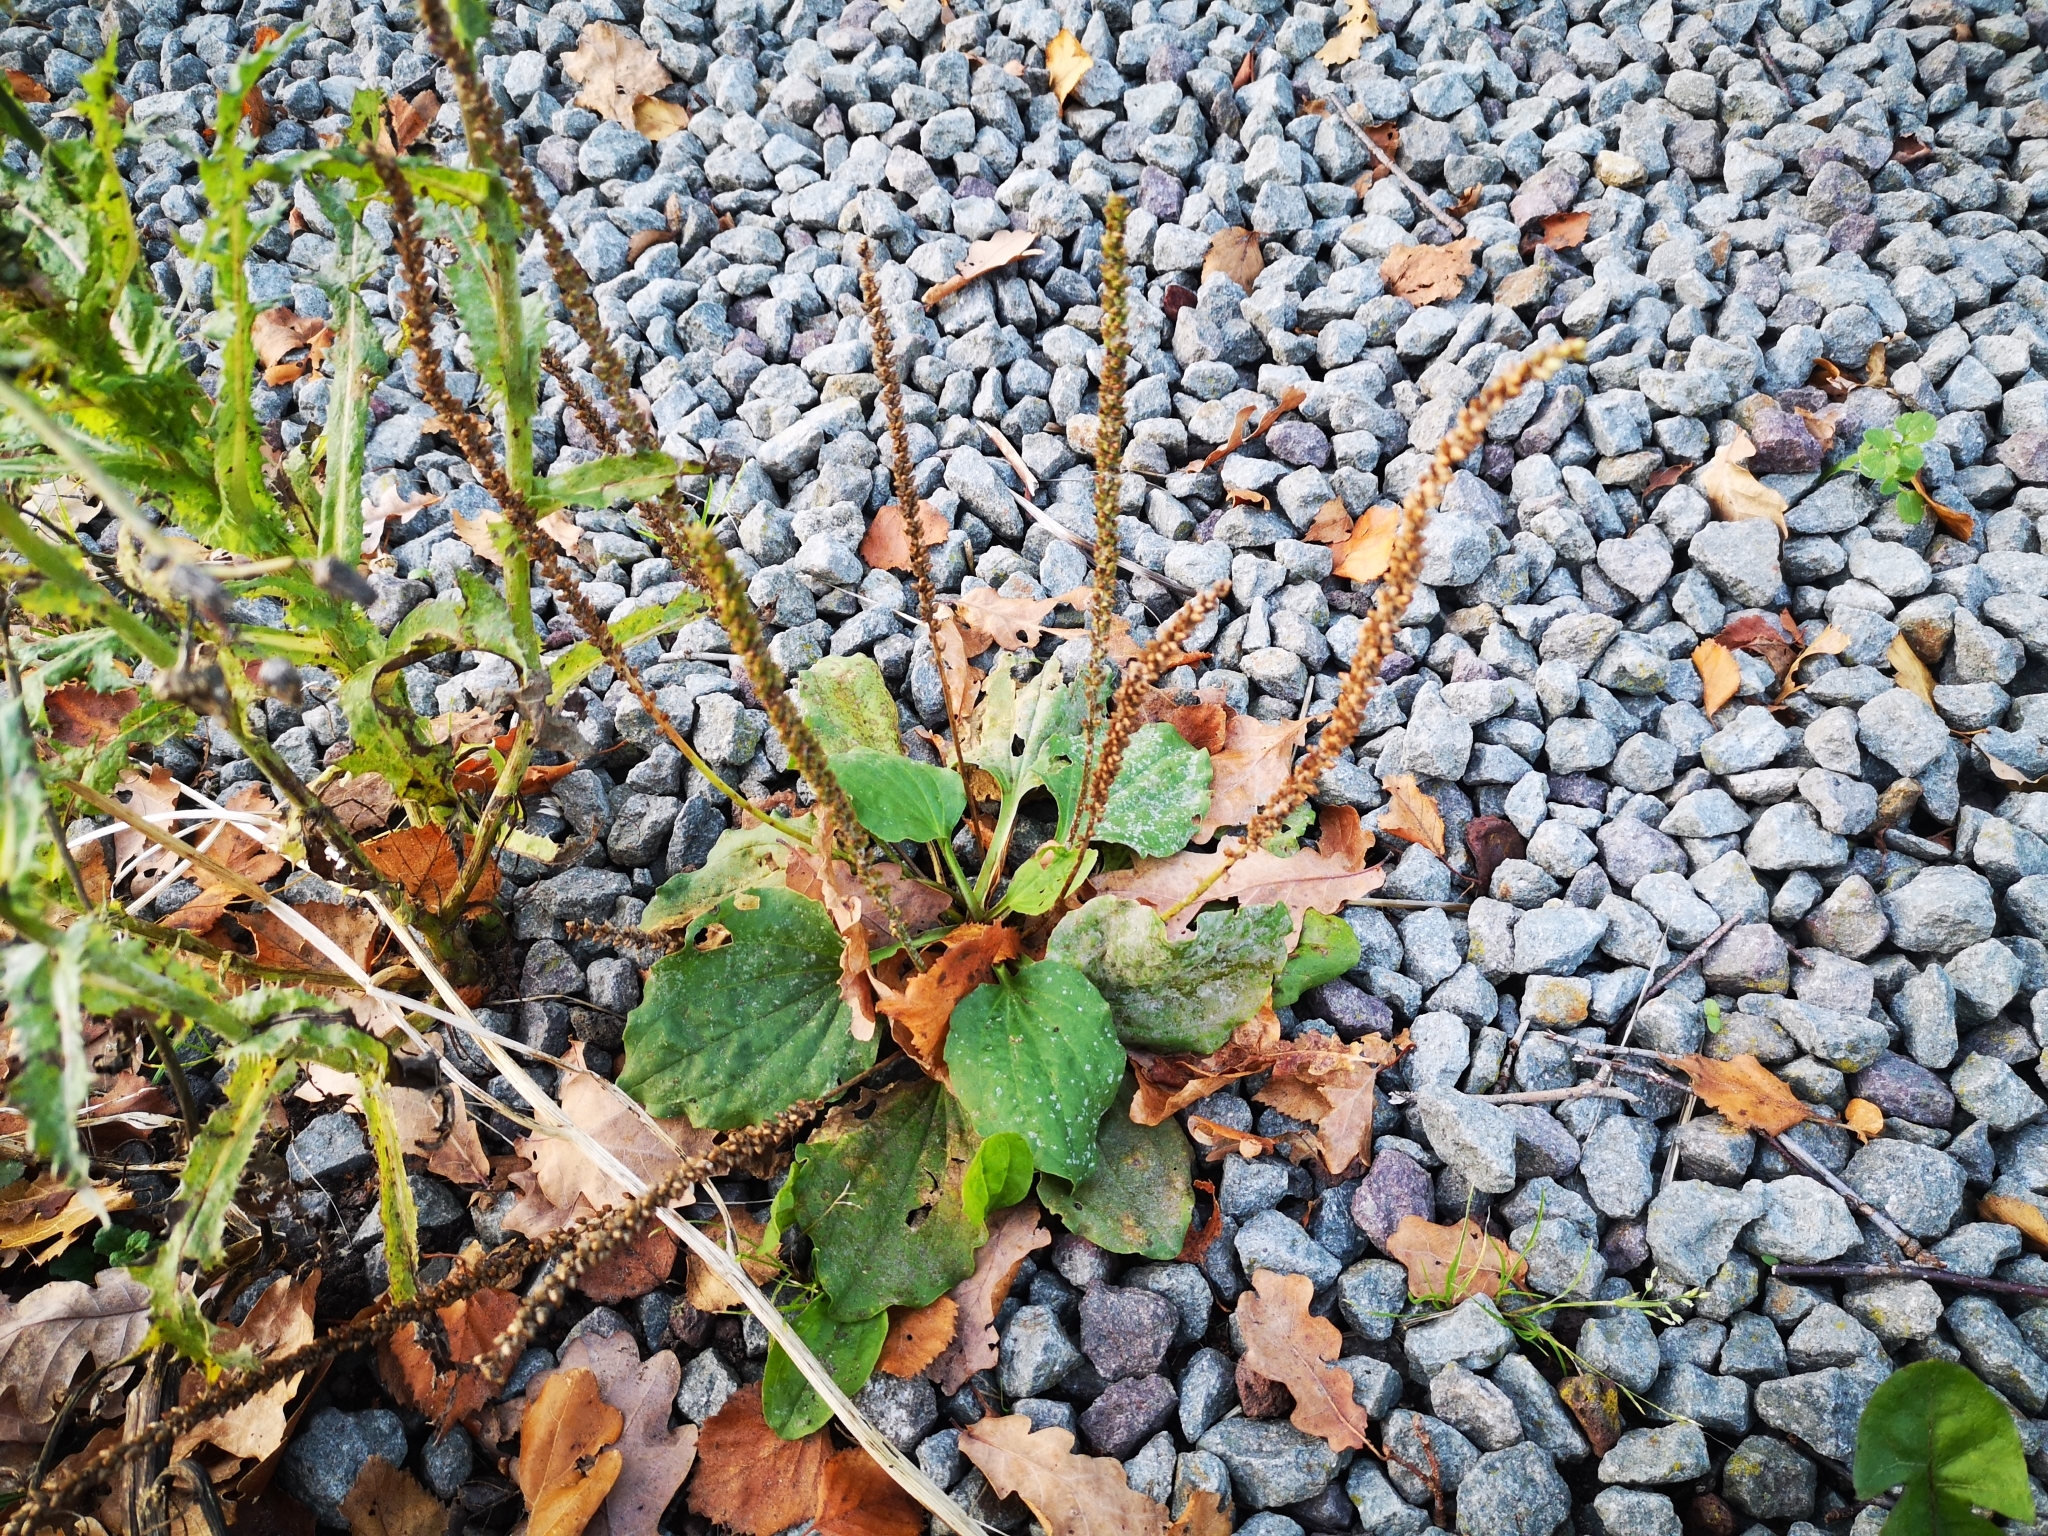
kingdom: Plantae
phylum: Tracheophyta
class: Magnoliopsida
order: Lamiales
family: Plantaginaceae
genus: Plantago
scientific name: Plantago major
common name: Common plantain
